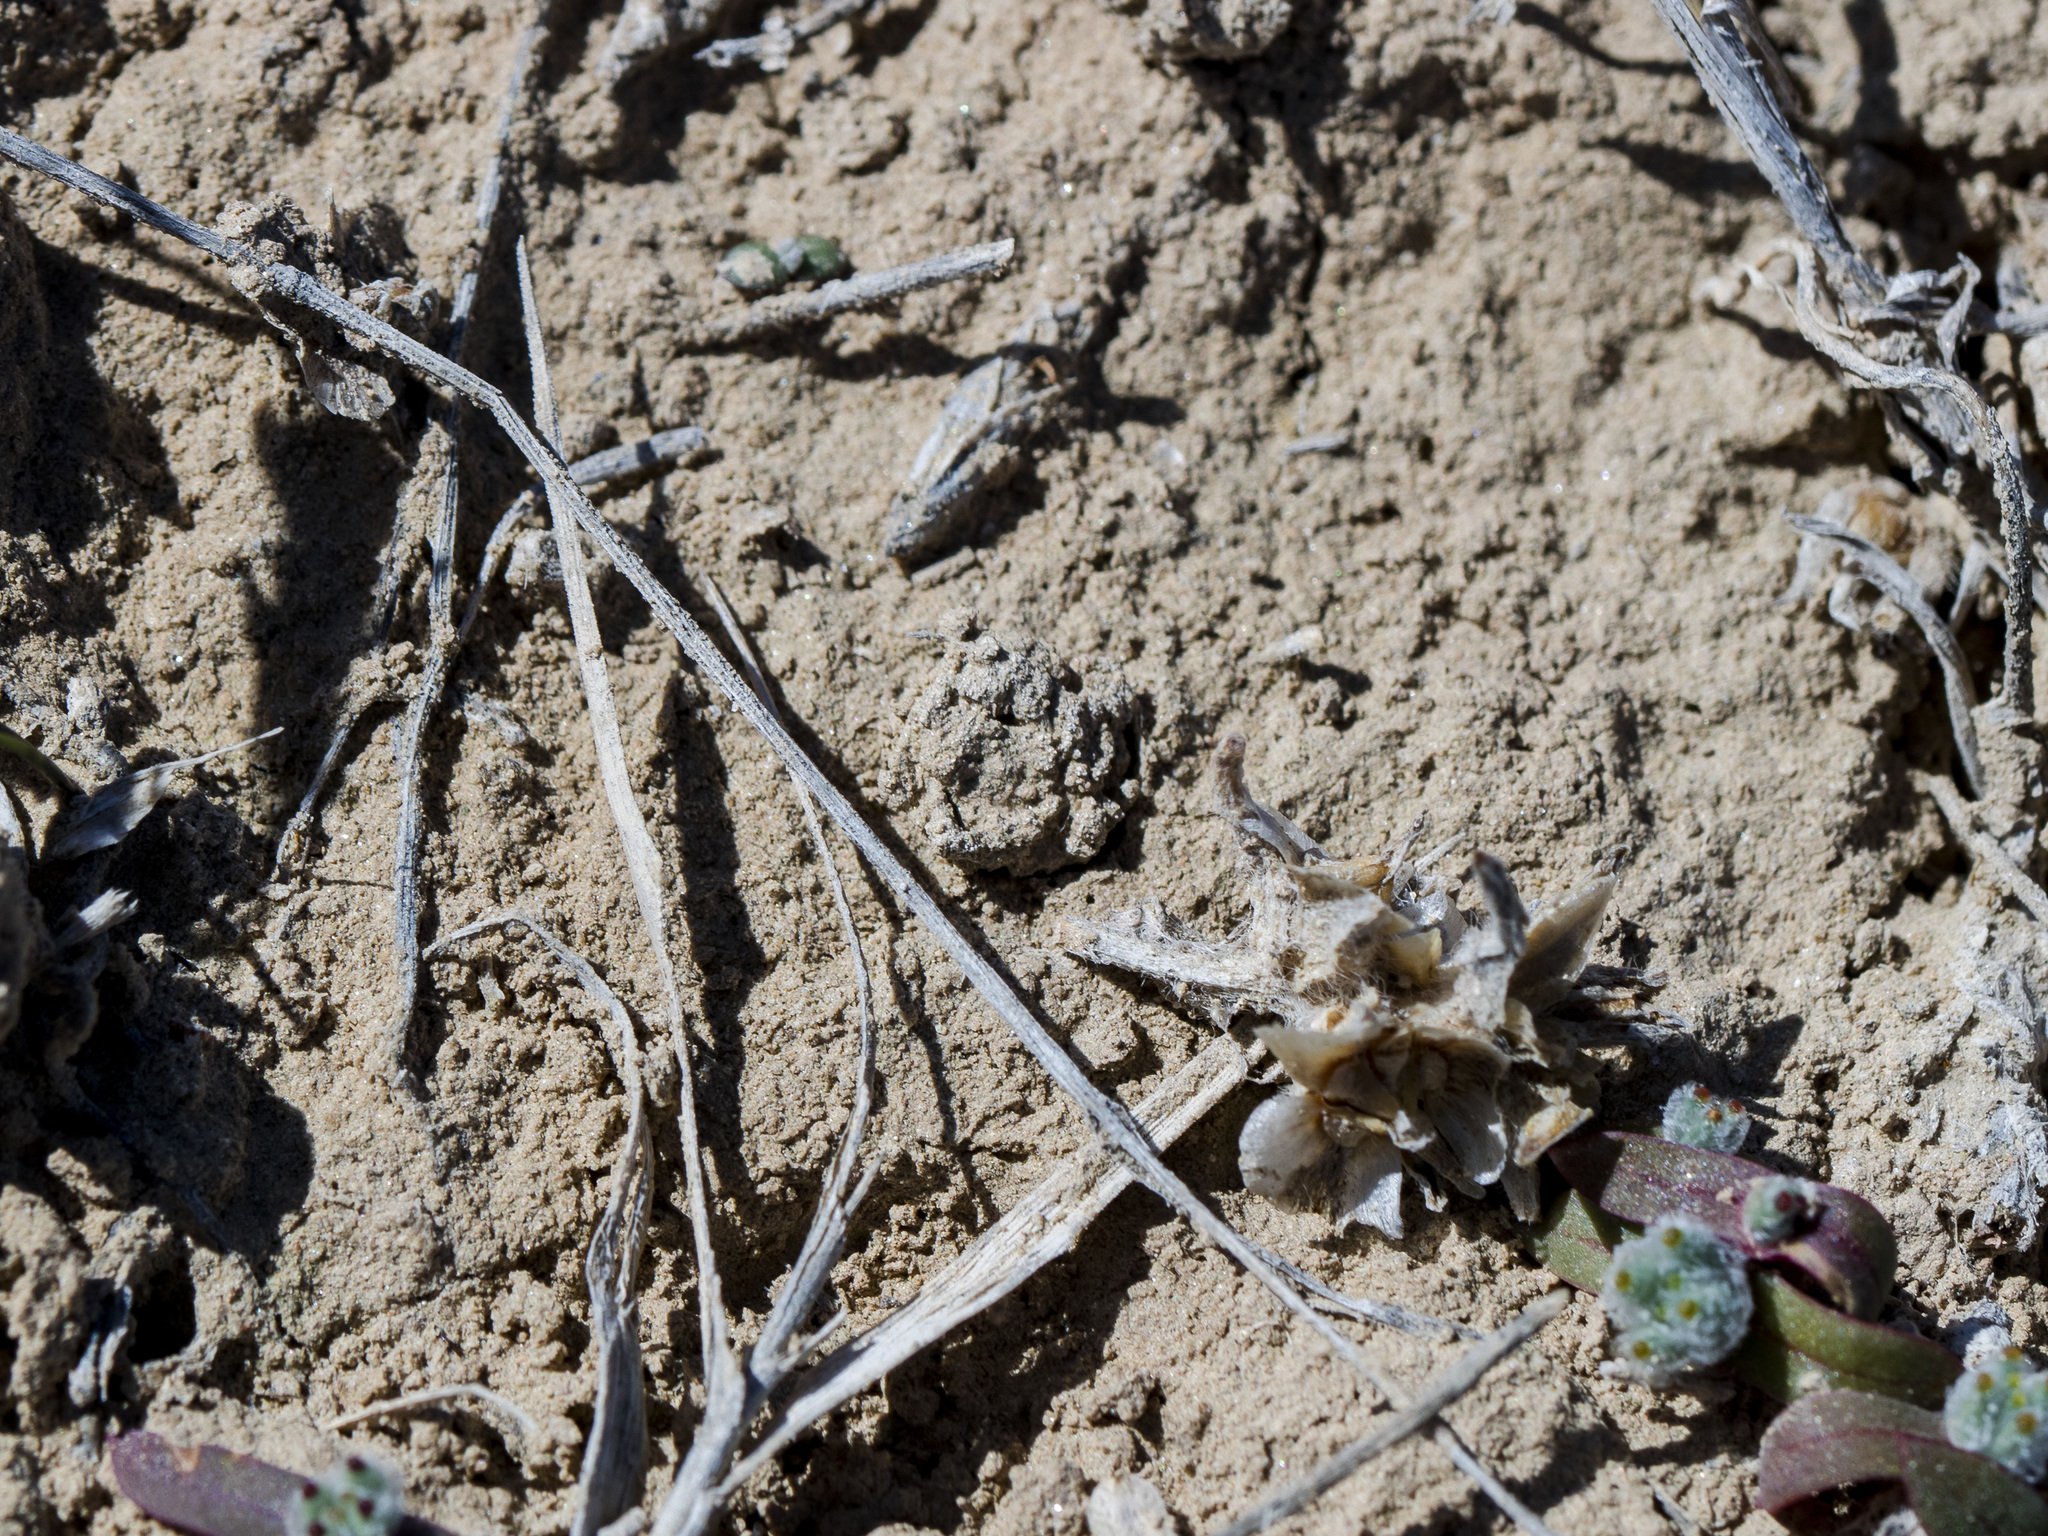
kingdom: Animalia
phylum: Arthropoda
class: Arachnida
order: Araneae
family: Lycosidae
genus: Alopecosa
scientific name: Alopecosa marikovskyi
